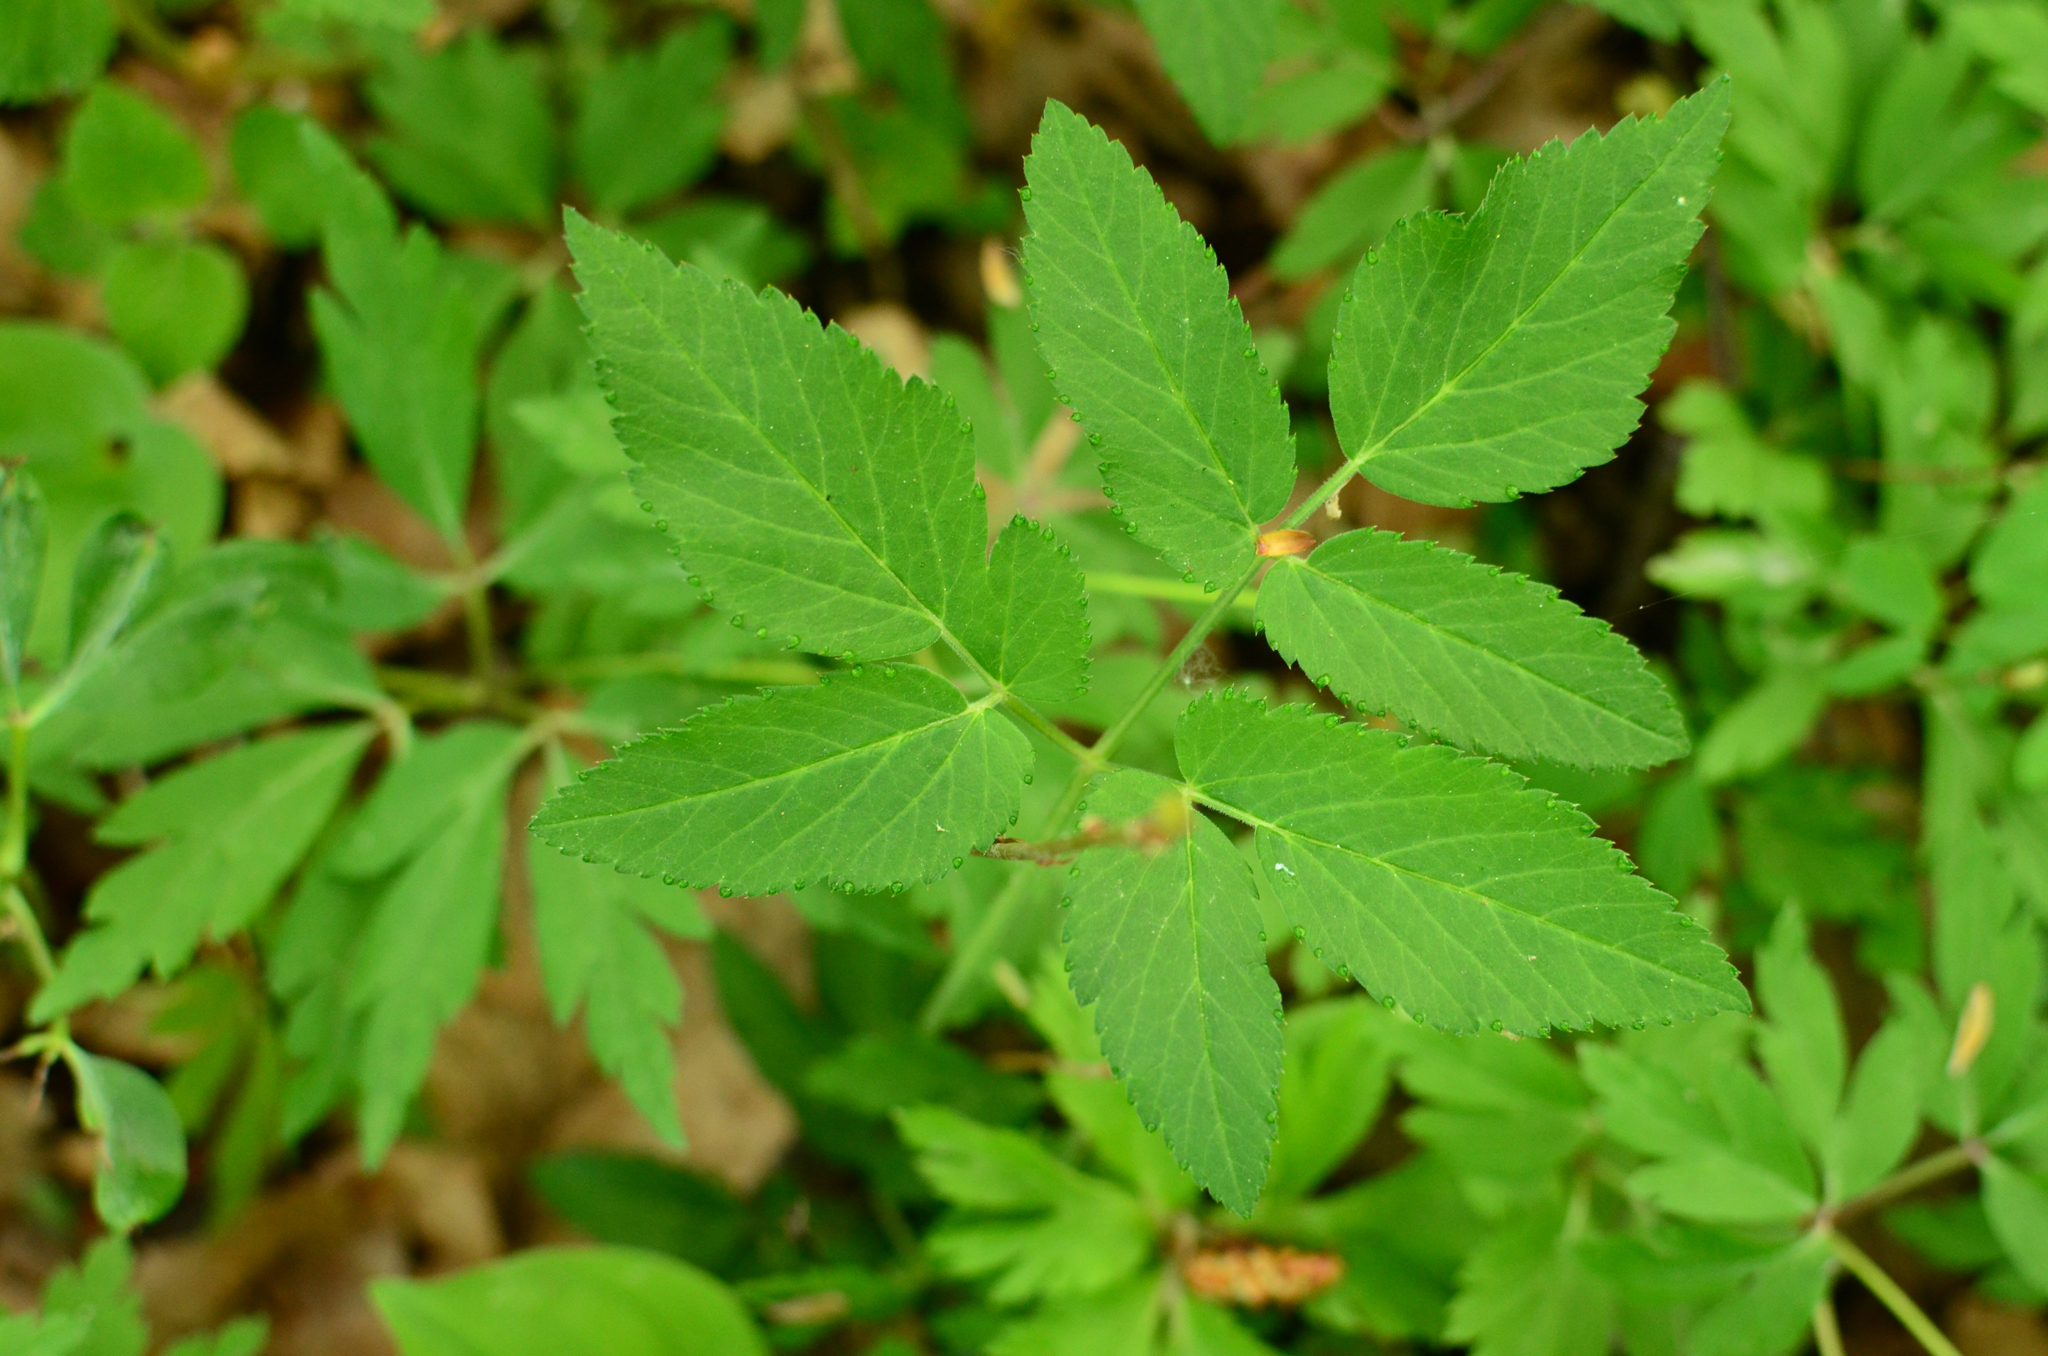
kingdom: Plantae
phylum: Tracheophyta
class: Magnoliopsida
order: Apiales
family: Apiaceae
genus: Aegopodium
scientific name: Aegopodium podagraria
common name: Ground-elder
